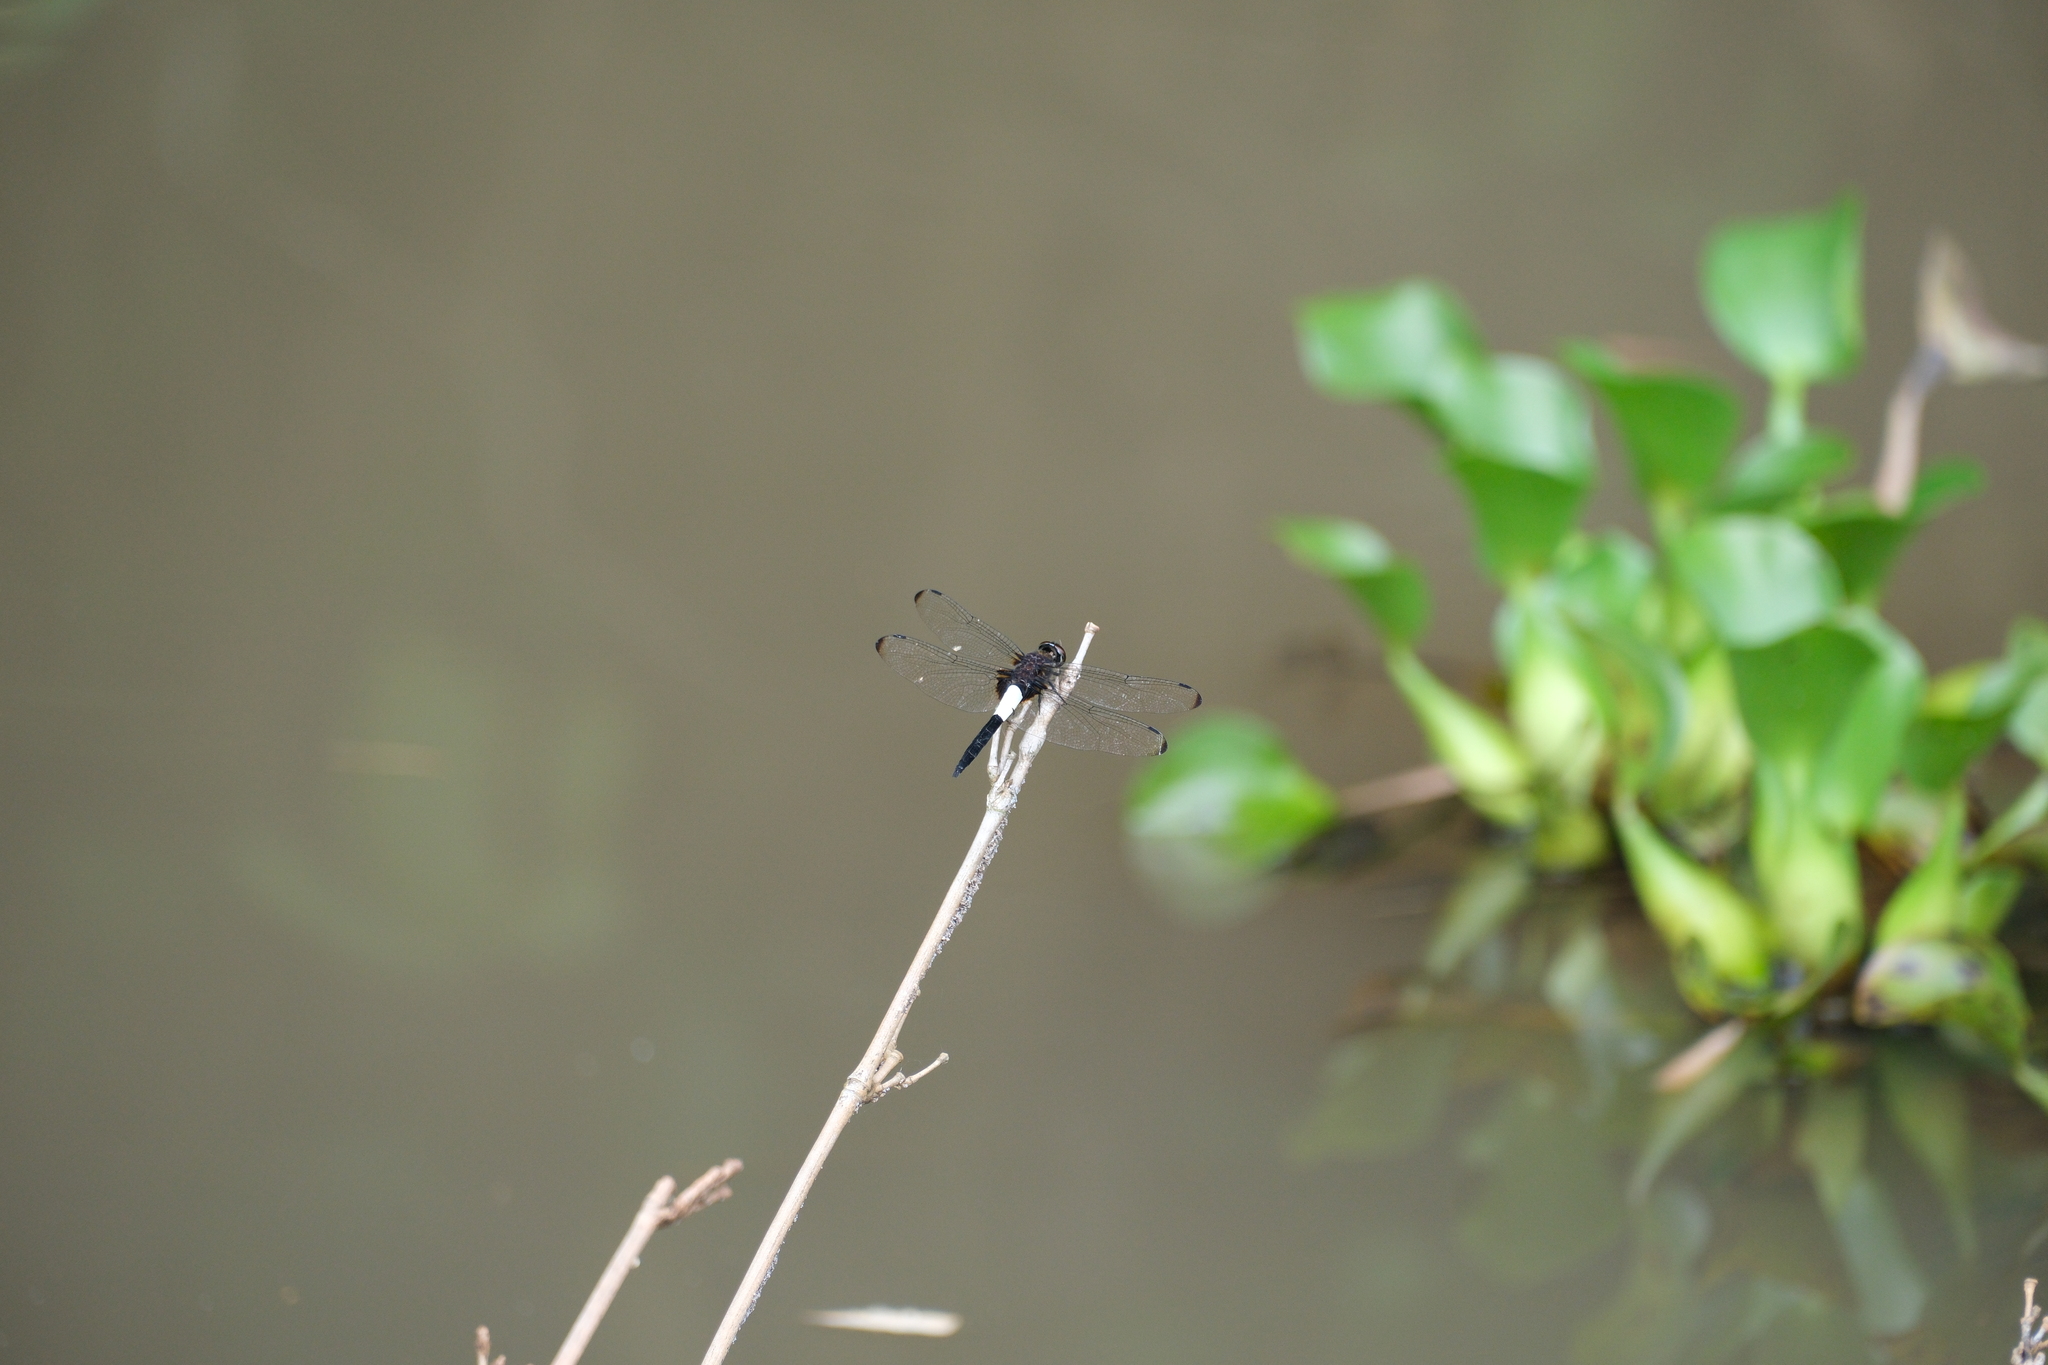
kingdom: Animalia
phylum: Arthropoda
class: Insecta
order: Odonata
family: Libellulidae
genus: Pseudothemis
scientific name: Pseudothemis zonata
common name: Pied skimmer
